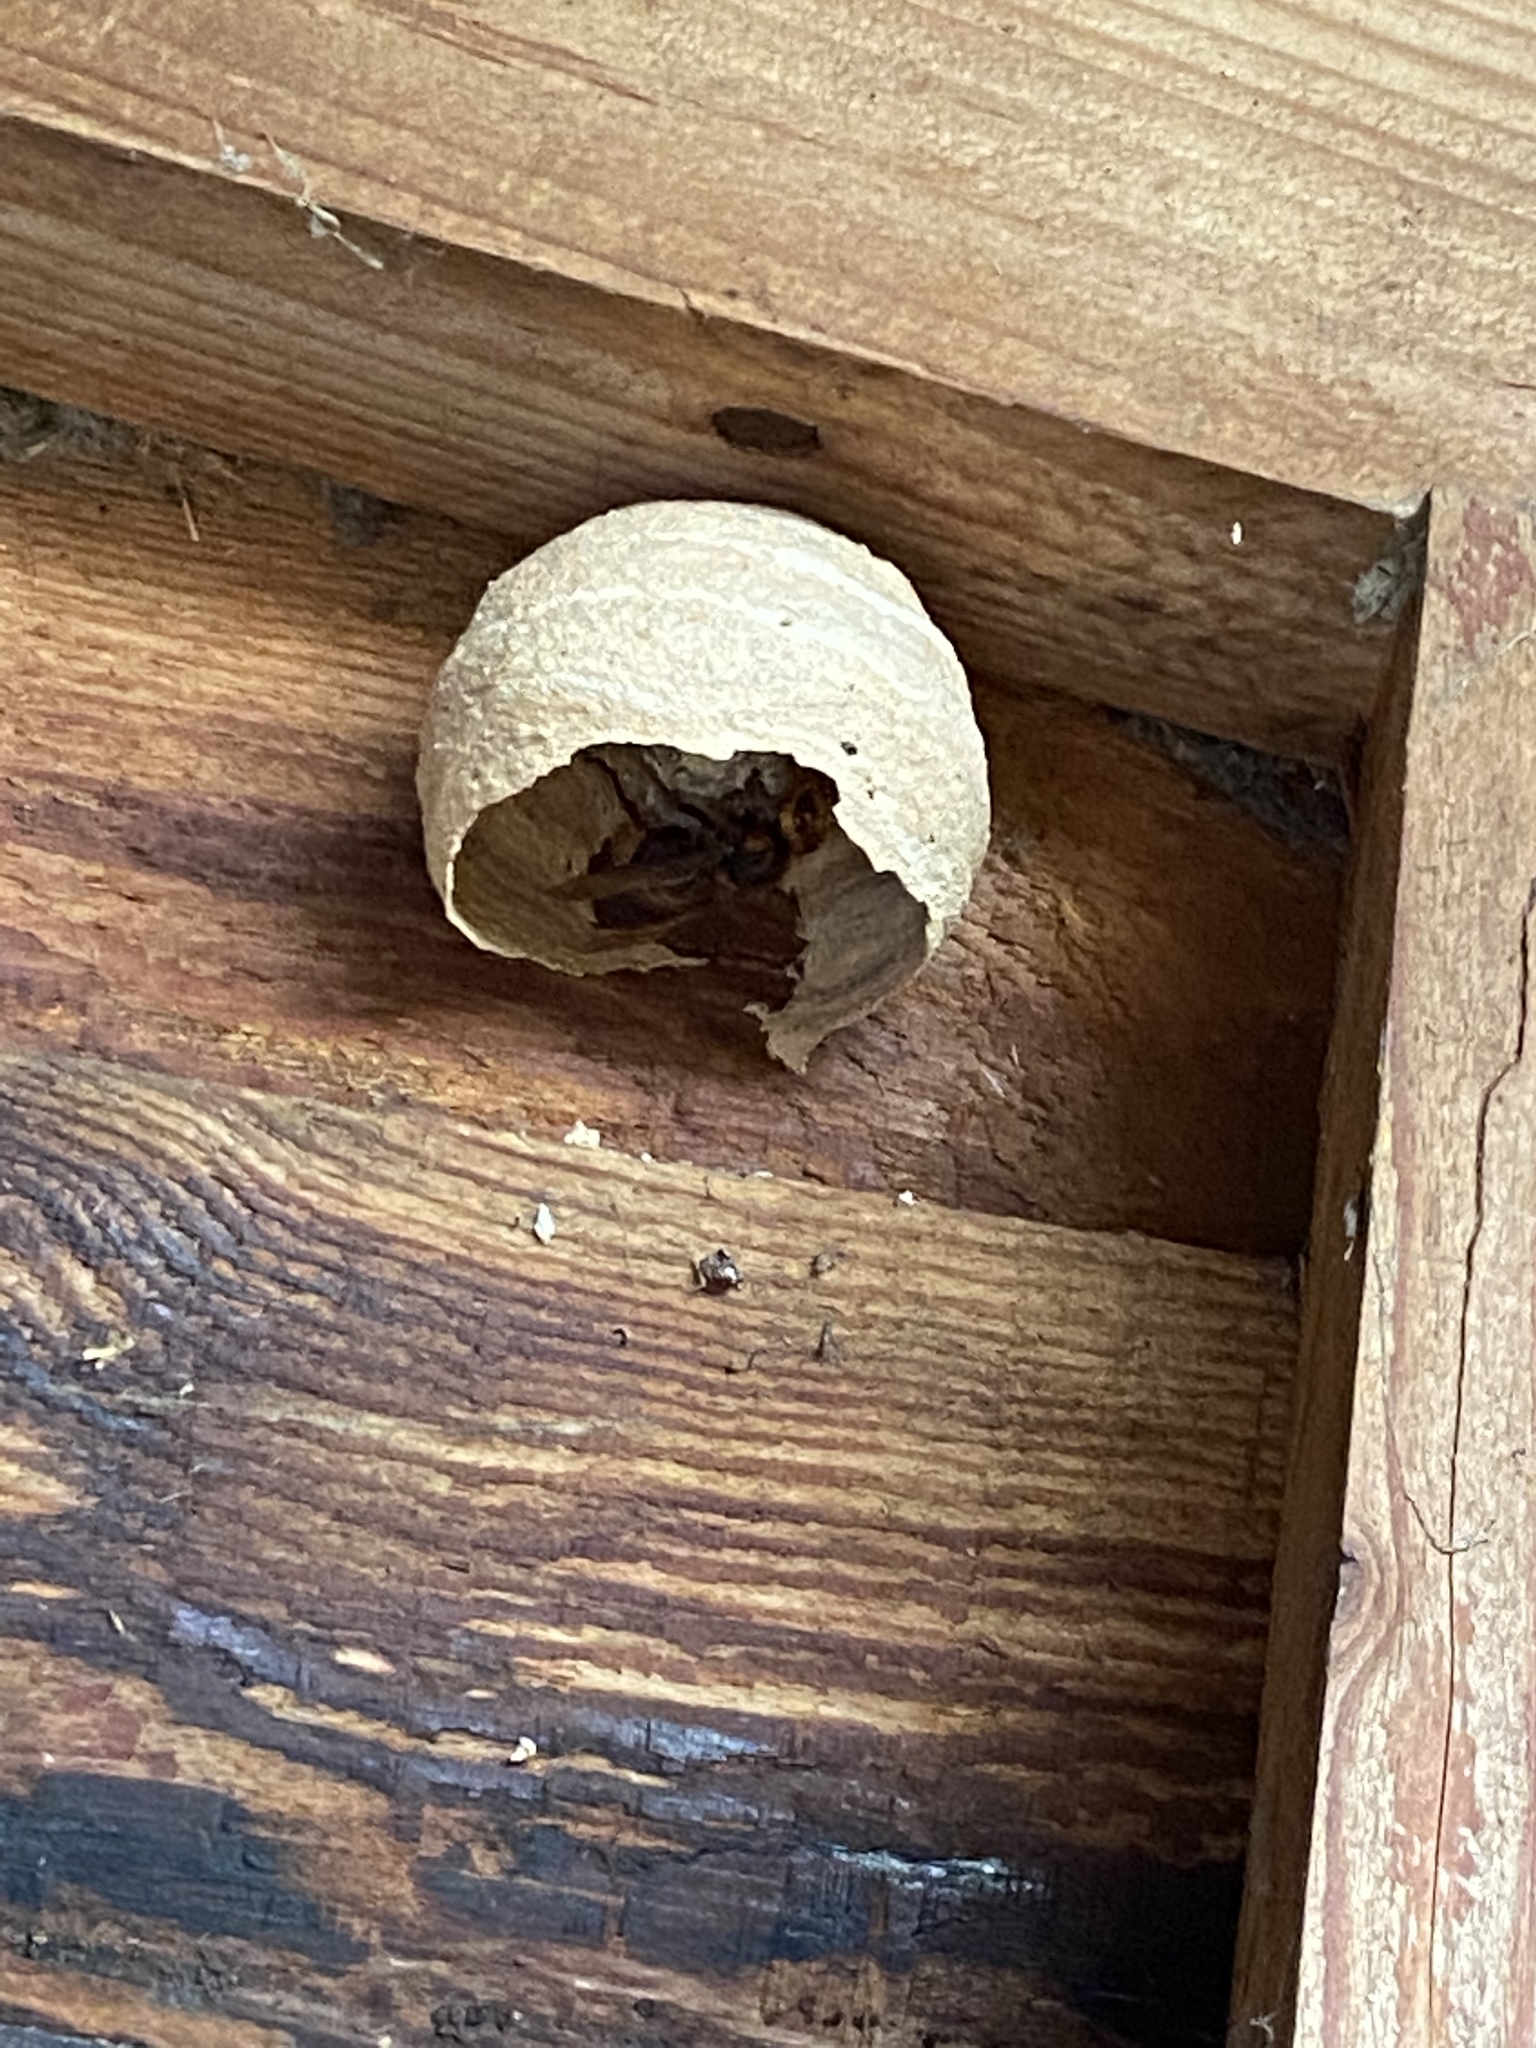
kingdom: Animalia
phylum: Arthropoda
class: Insecta
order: Hymenoptera
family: Vespidae
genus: Vespa
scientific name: Vespa crabro
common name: Hornet
